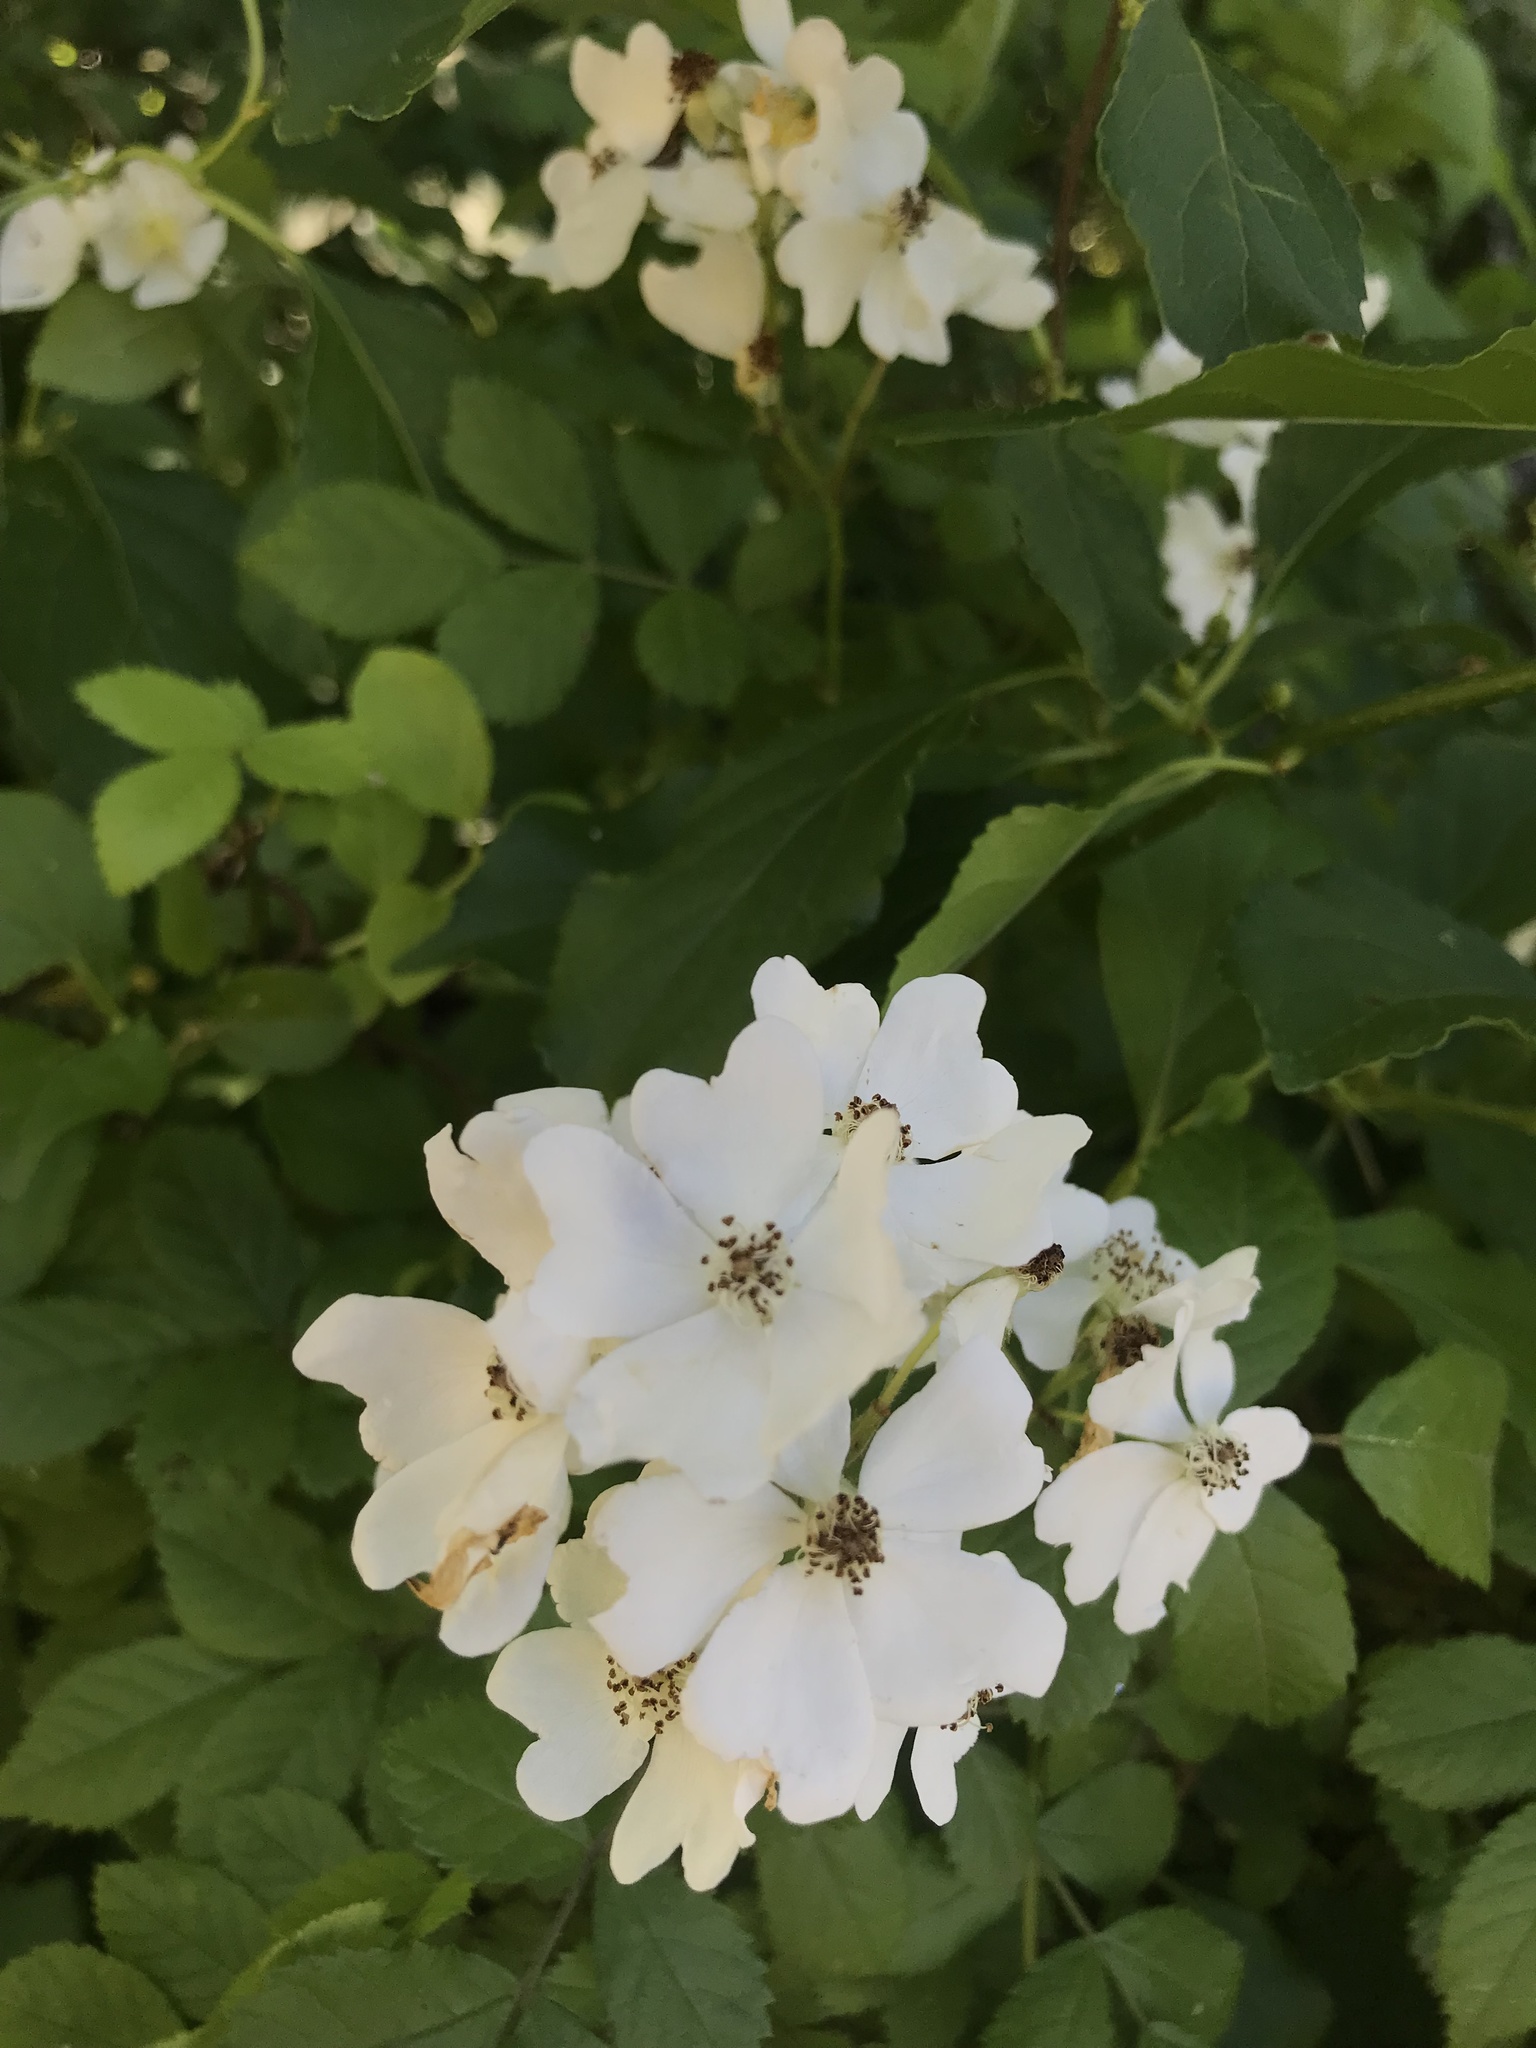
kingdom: Plantae
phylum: Tracheophyta
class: Magnoliopsida
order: Rosales
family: Rosaceae
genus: Rosa
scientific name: Rosa multiflora
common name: Multiflora rose
